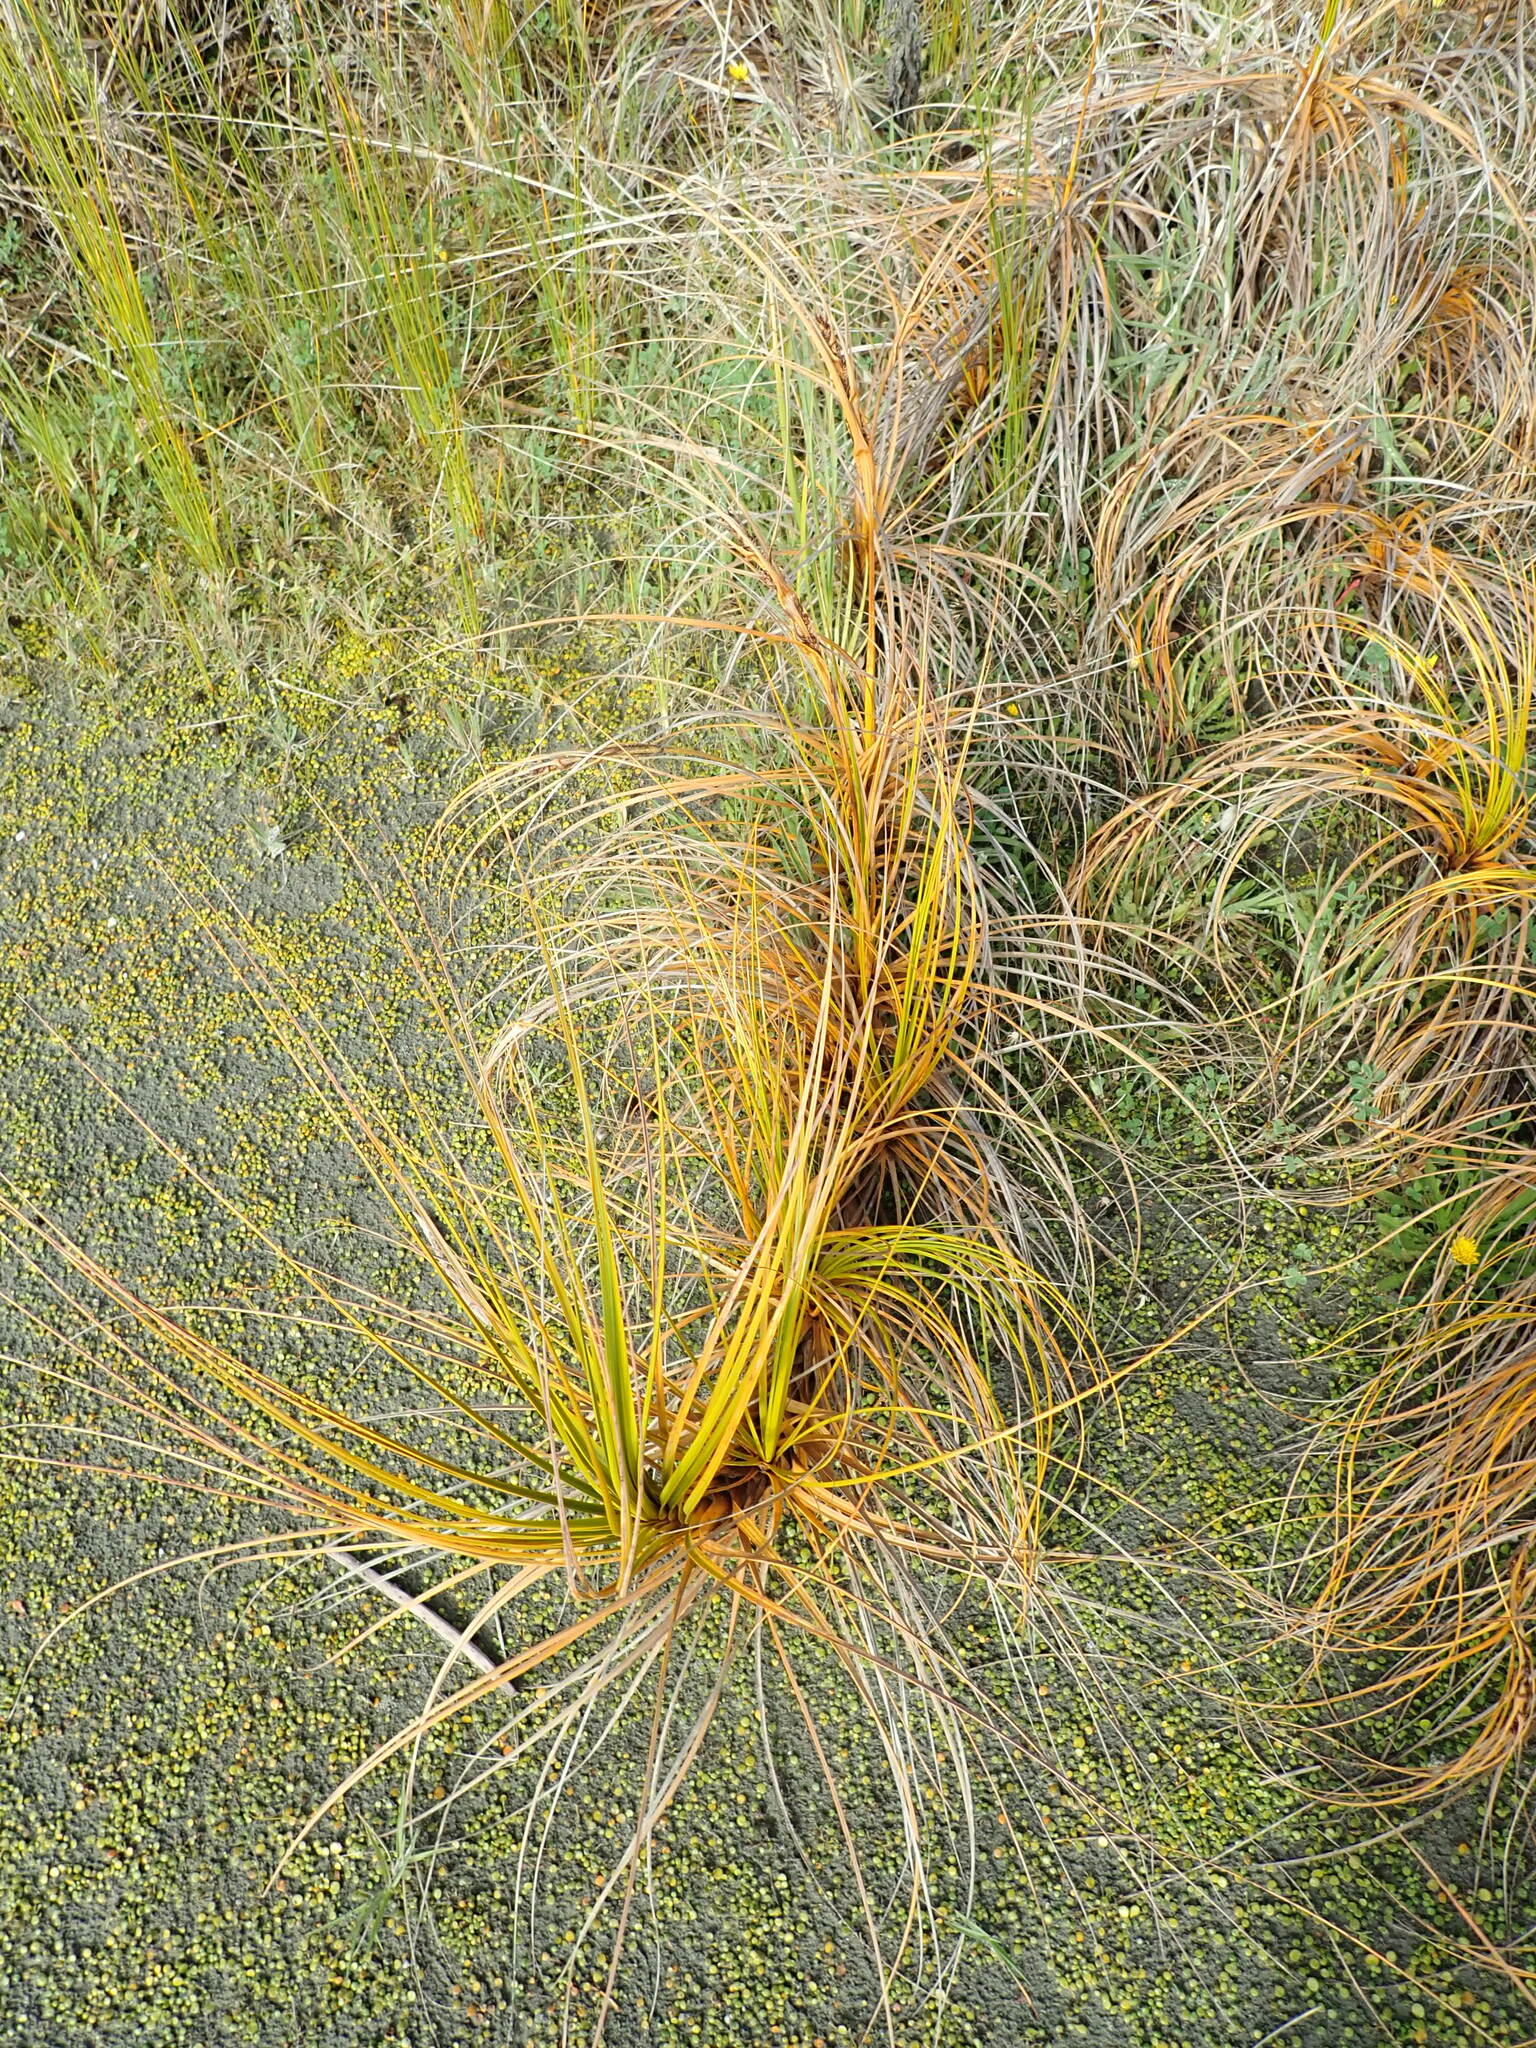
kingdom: Plantae
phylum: Tracheophyta
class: Liliopsida
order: Poales
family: Cyperaceae
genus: Ficinia
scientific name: Ficinia spiralis
